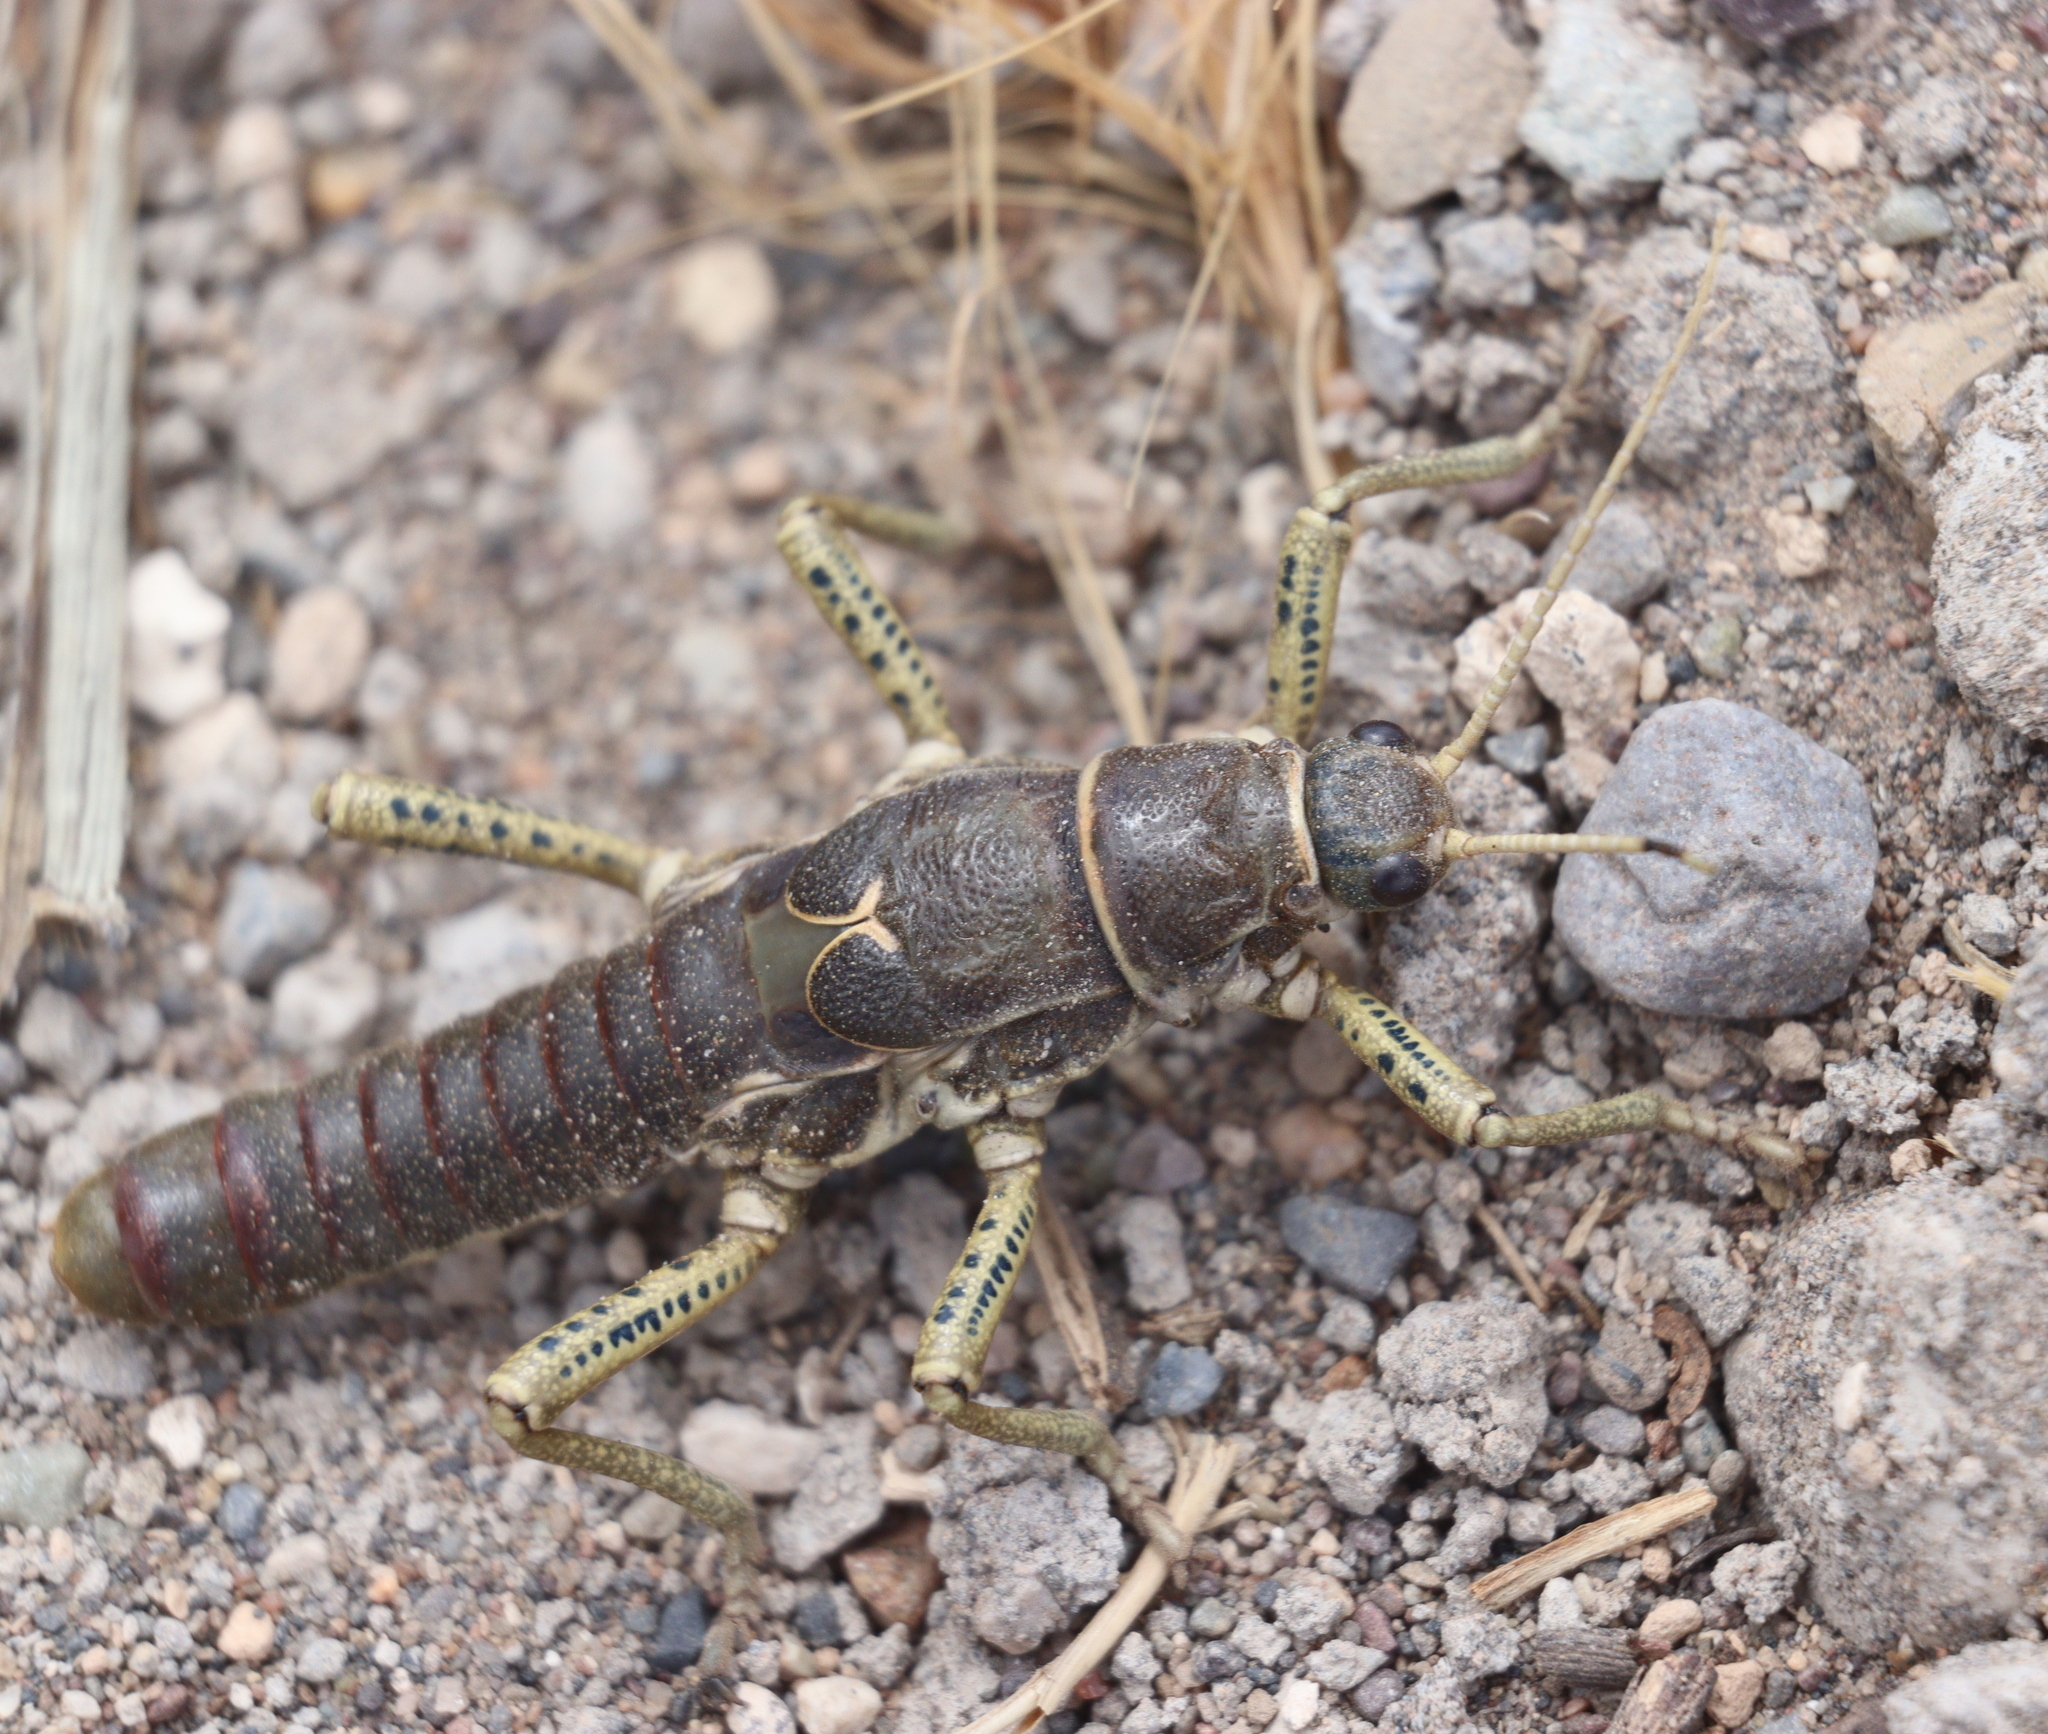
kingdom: Animalia
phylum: Arthropoda
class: Insecta
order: Phasmida
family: Agathemeridae
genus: Agathemera
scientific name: Agathemera millepunctata
